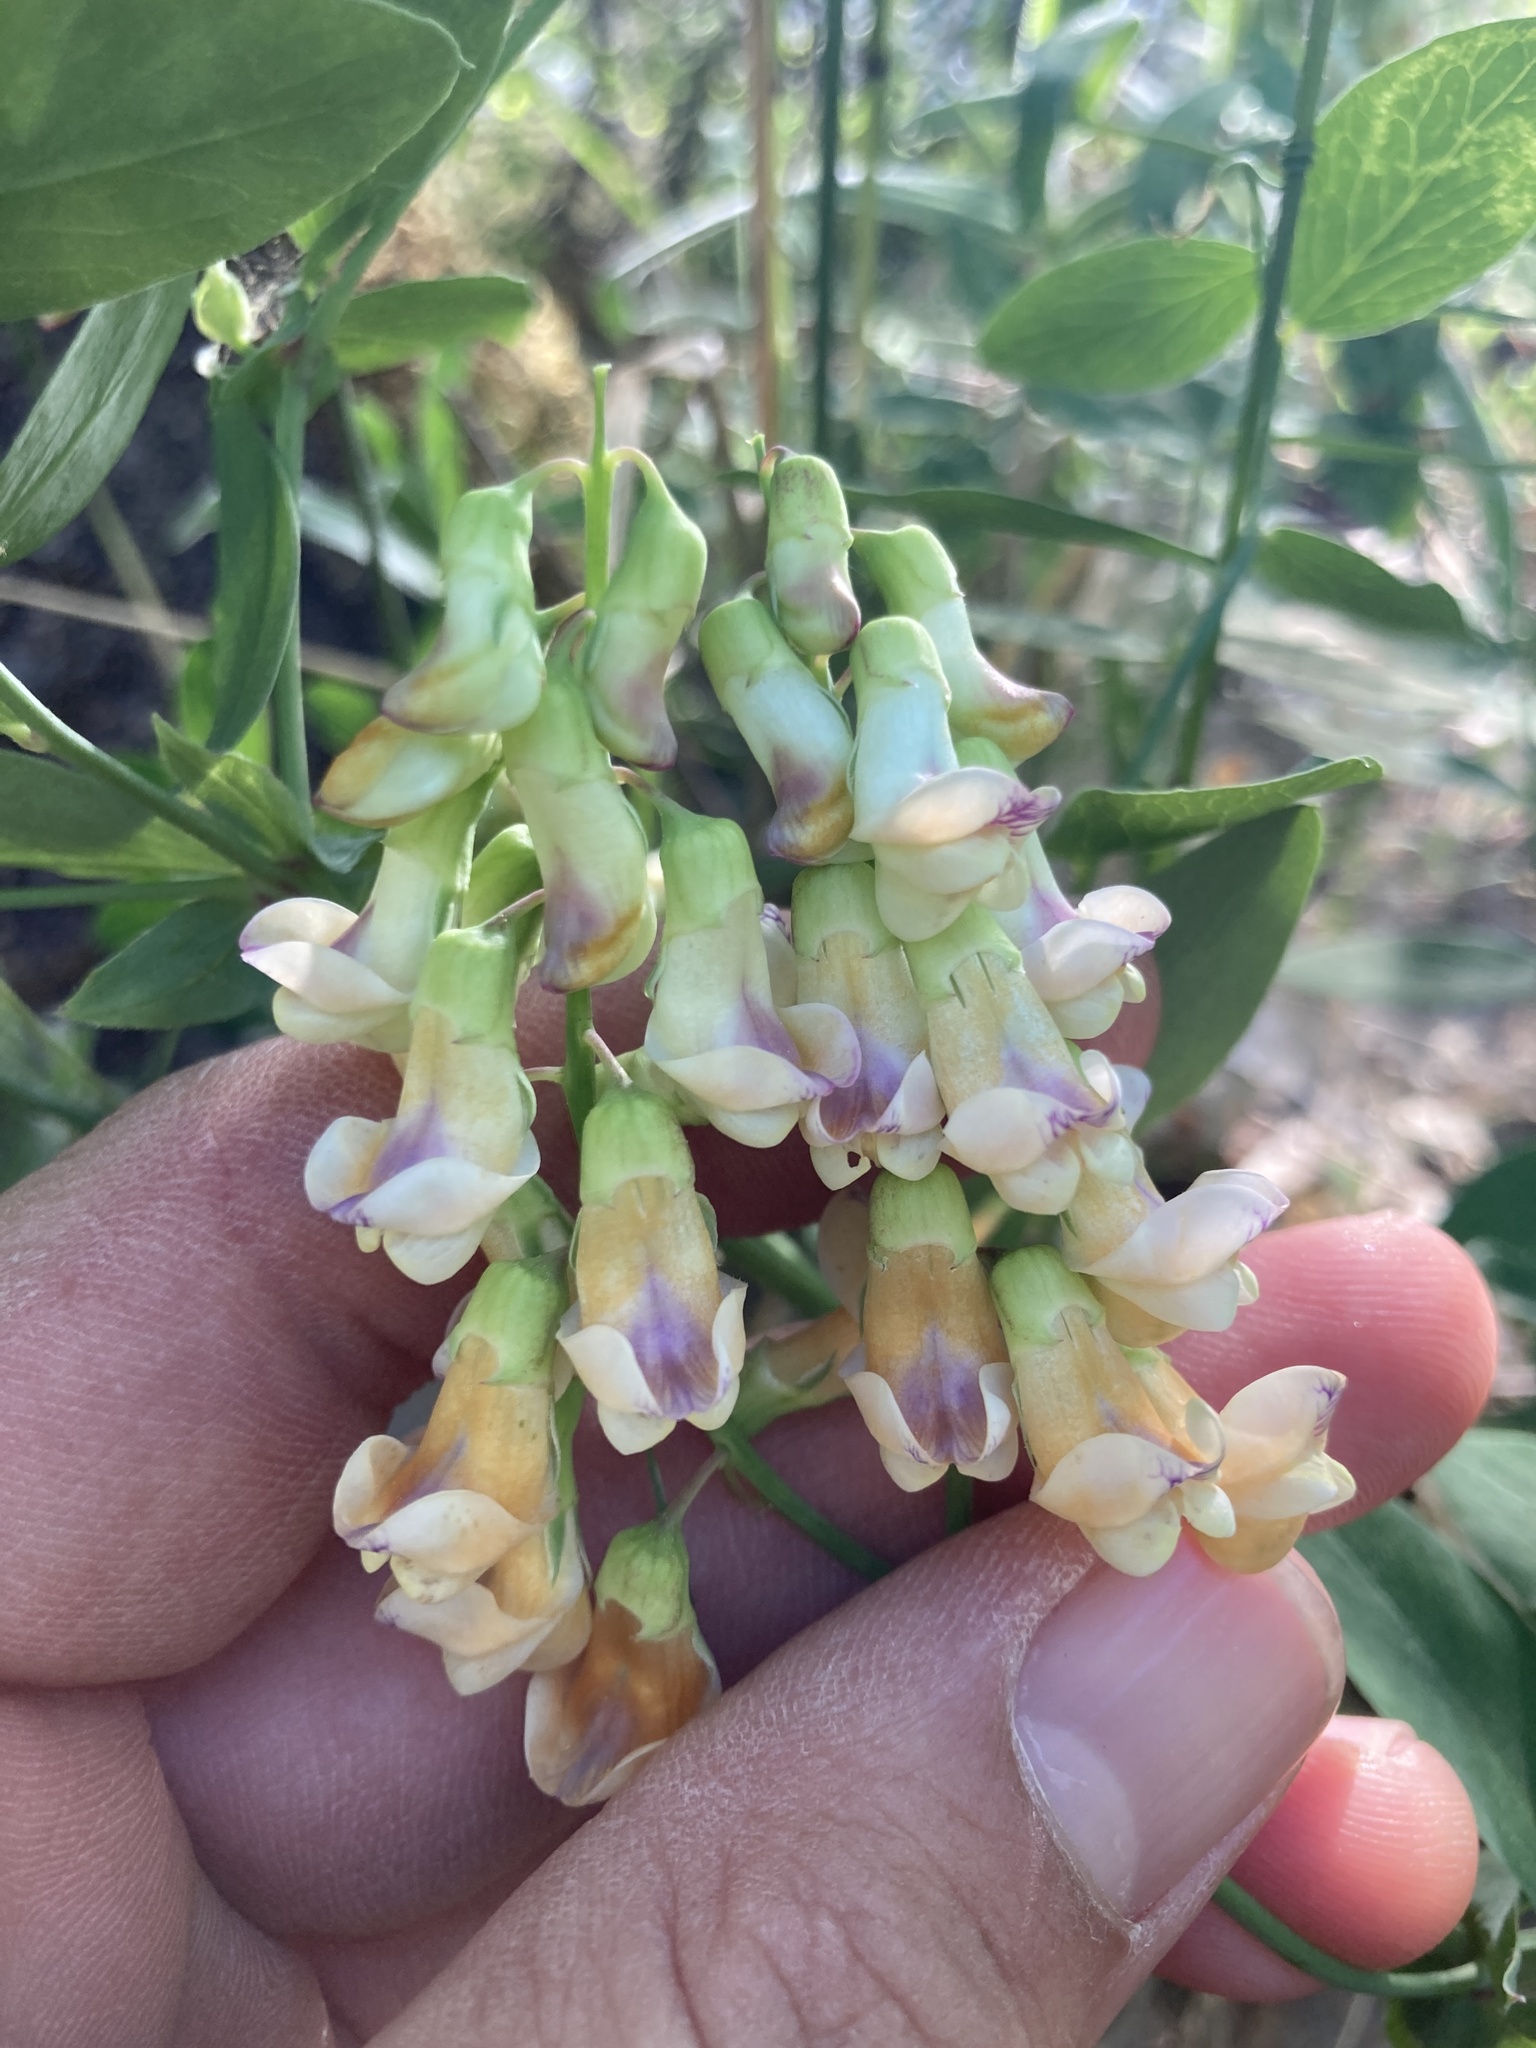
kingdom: Plantae
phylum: Tracheophyta
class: Magnoliopsida
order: Fabales
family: Fabaceae
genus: Lathyrus
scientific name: Lathyrus sulphureus
